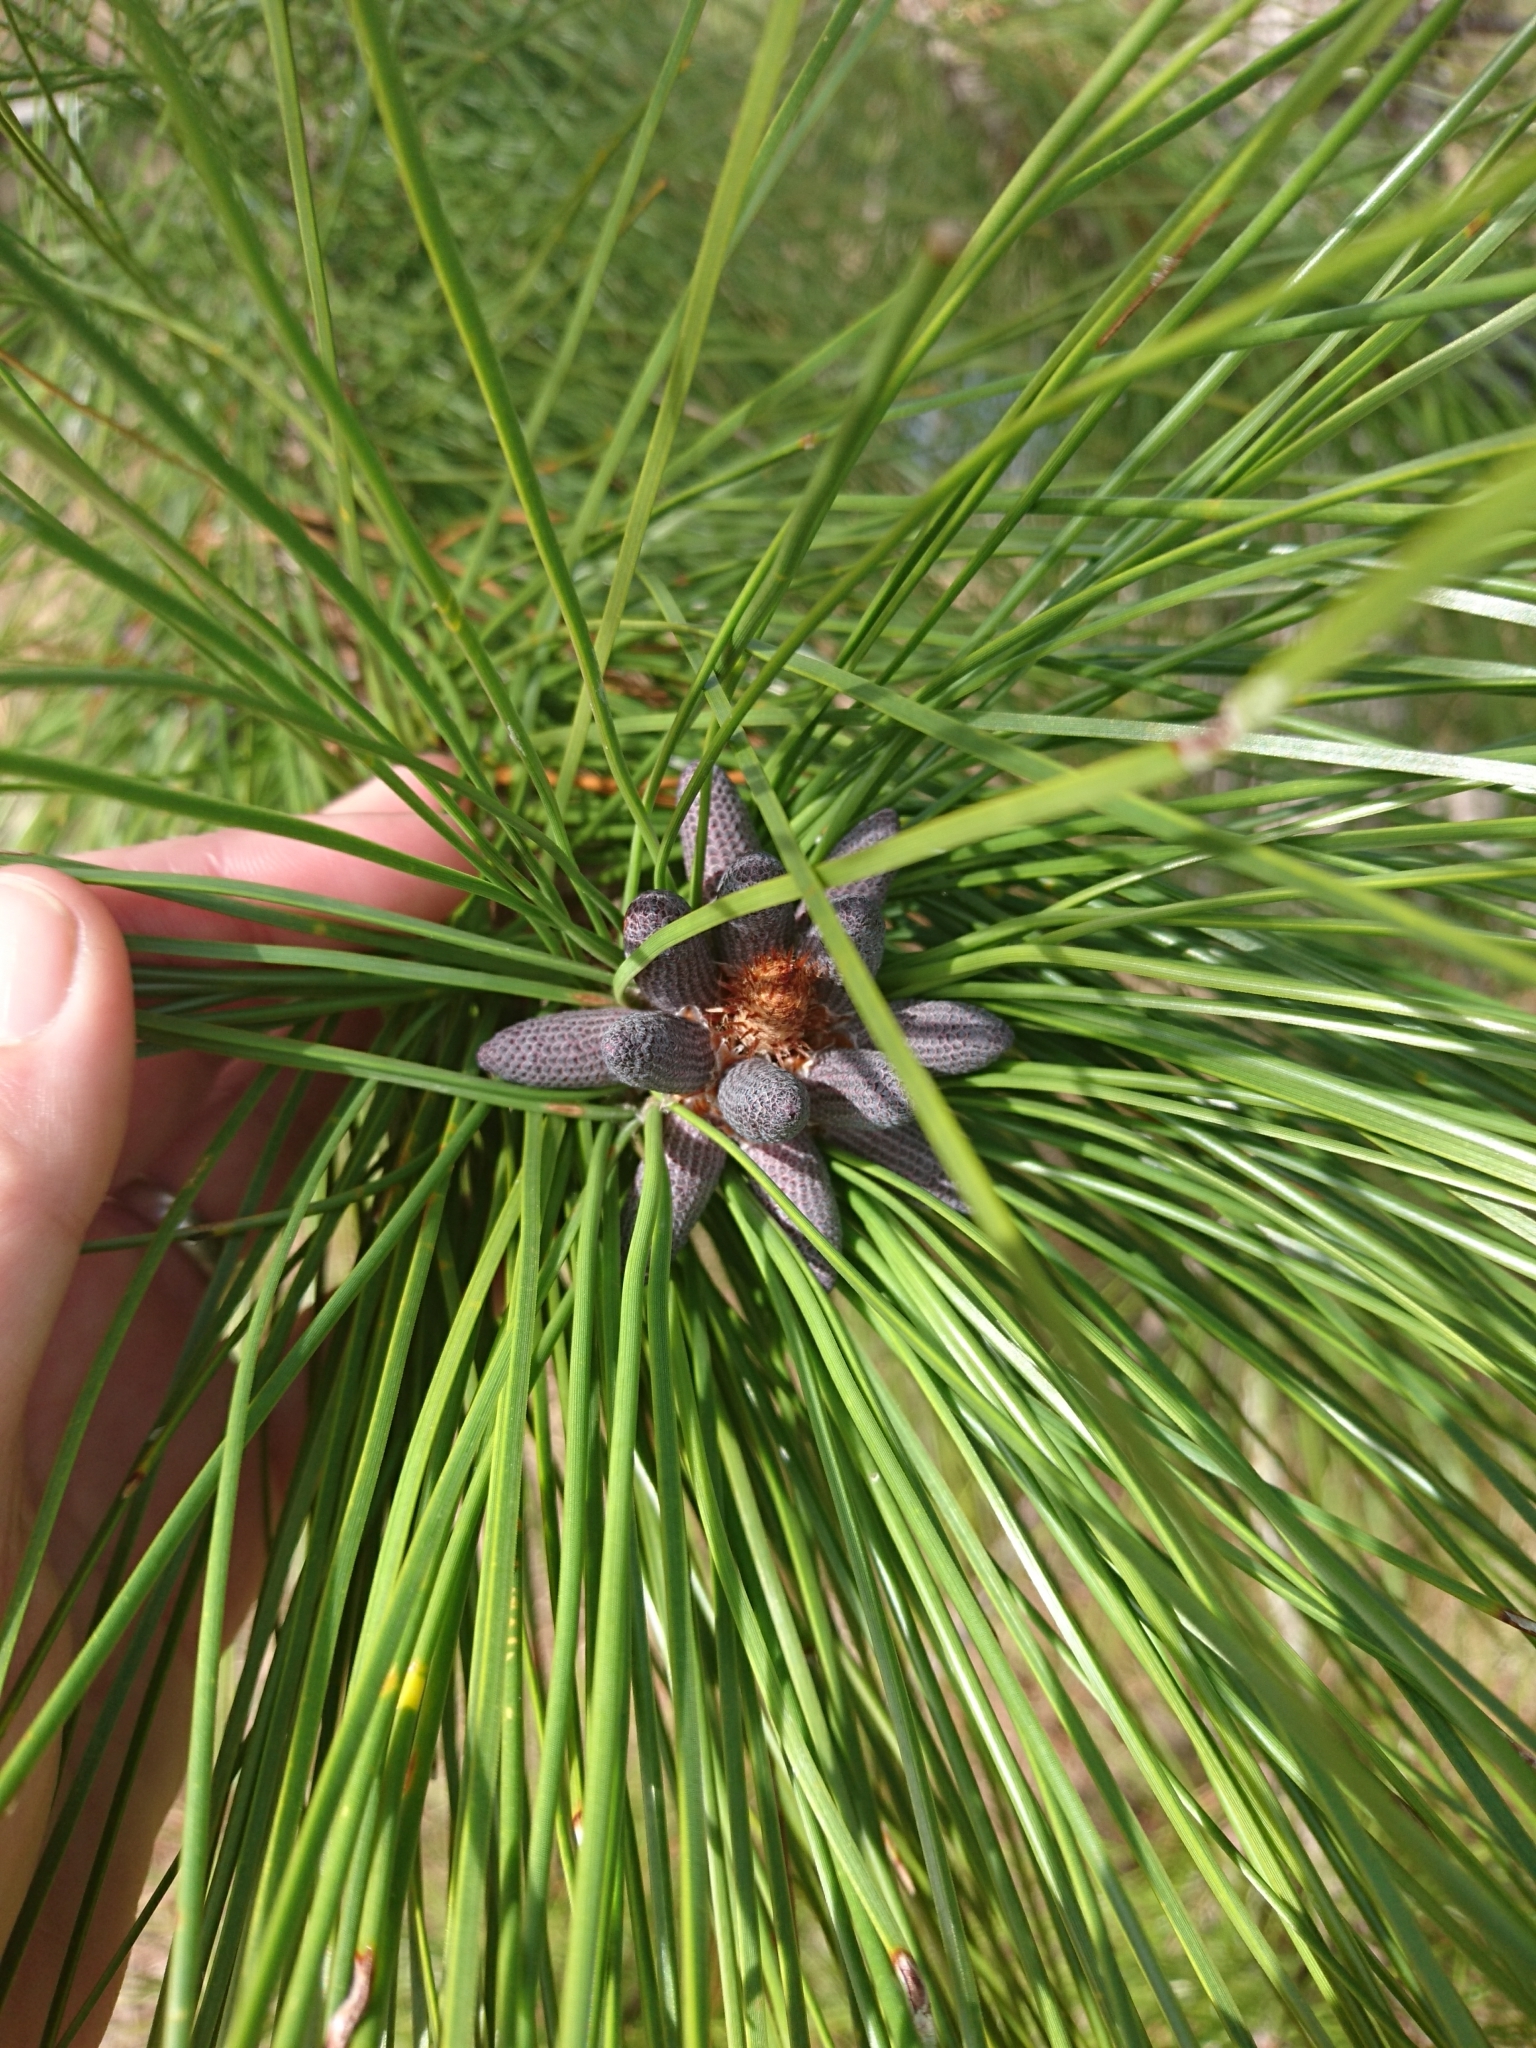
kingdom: Plantae
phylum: Tracheophyta
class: Pinopsida
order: Pinales
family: Pinaceae
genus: Pinus
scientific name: Pinus palustris
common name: Longleaf pine
